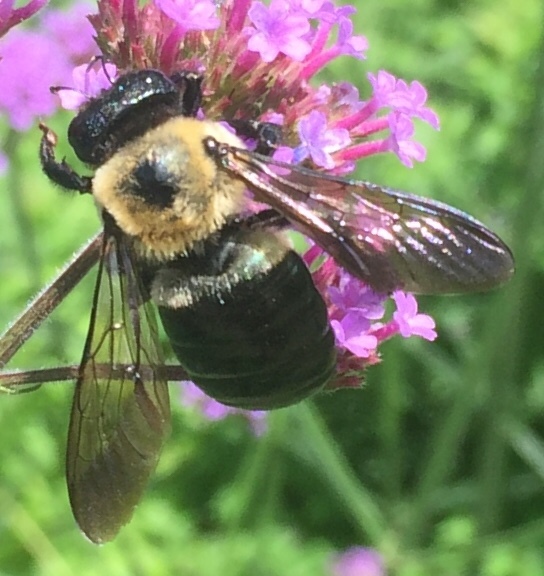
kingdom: Animalia
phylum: Arthropoda
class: Insecta
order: Hymenoptera
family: Apidae
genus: Xylocopa
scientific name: Xylocopa virginica
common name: Carpenter bee
